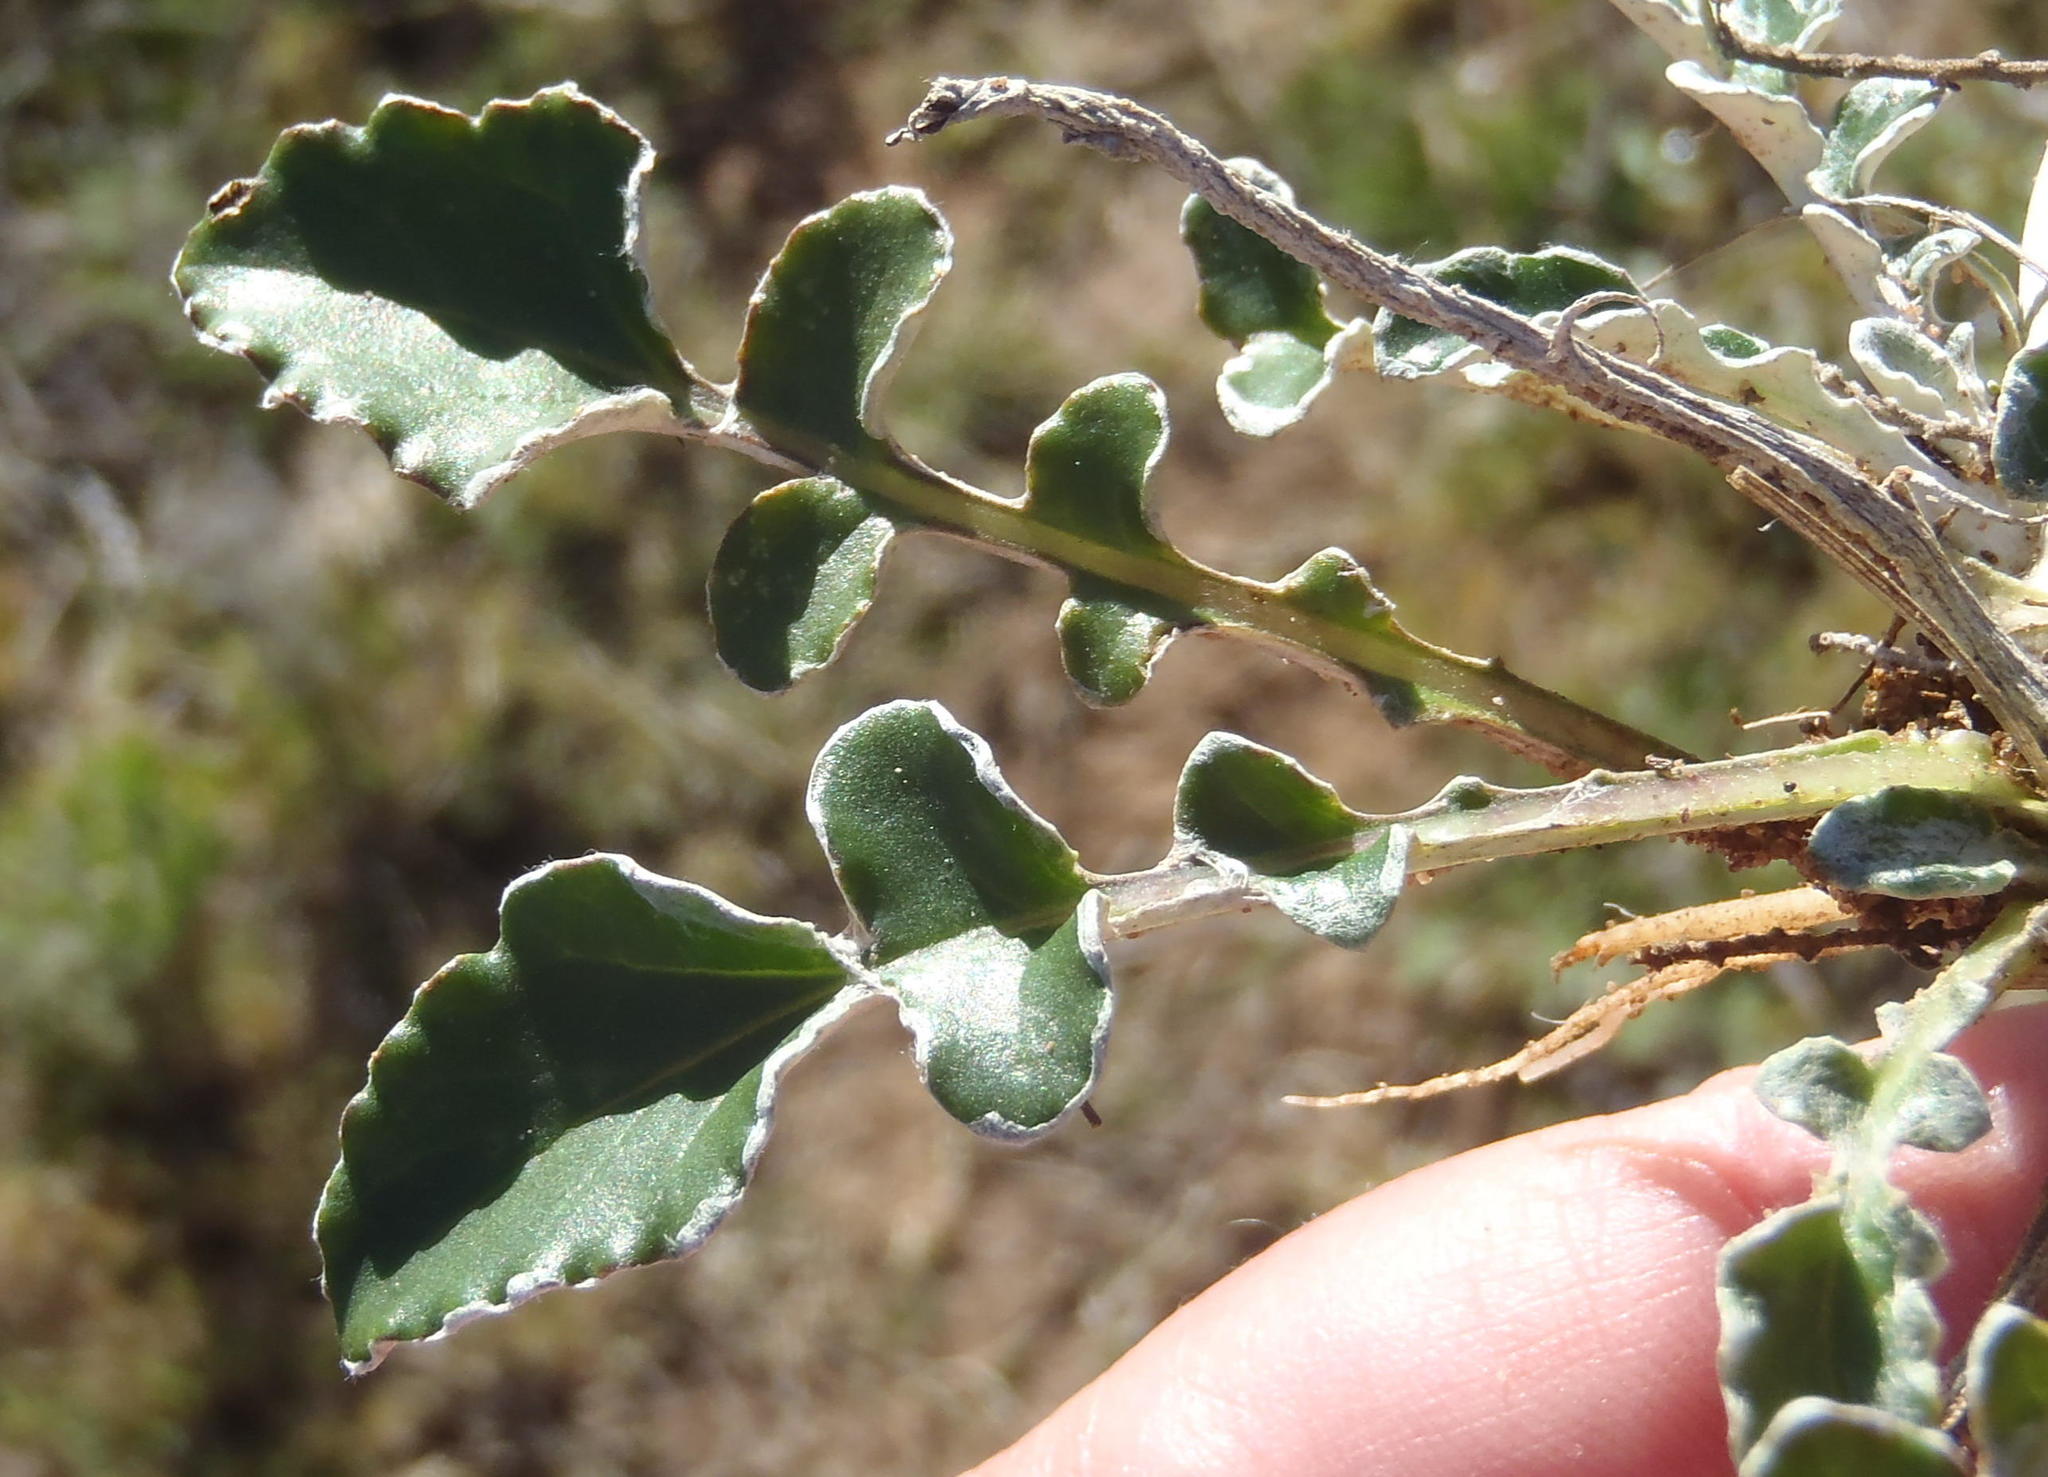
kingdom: Plantae
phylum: Tracheophyta
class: Magnoliopsida
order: Asterales
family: Asteraceae
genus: Haplocarpha
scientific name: Haplocarpha lyrata
